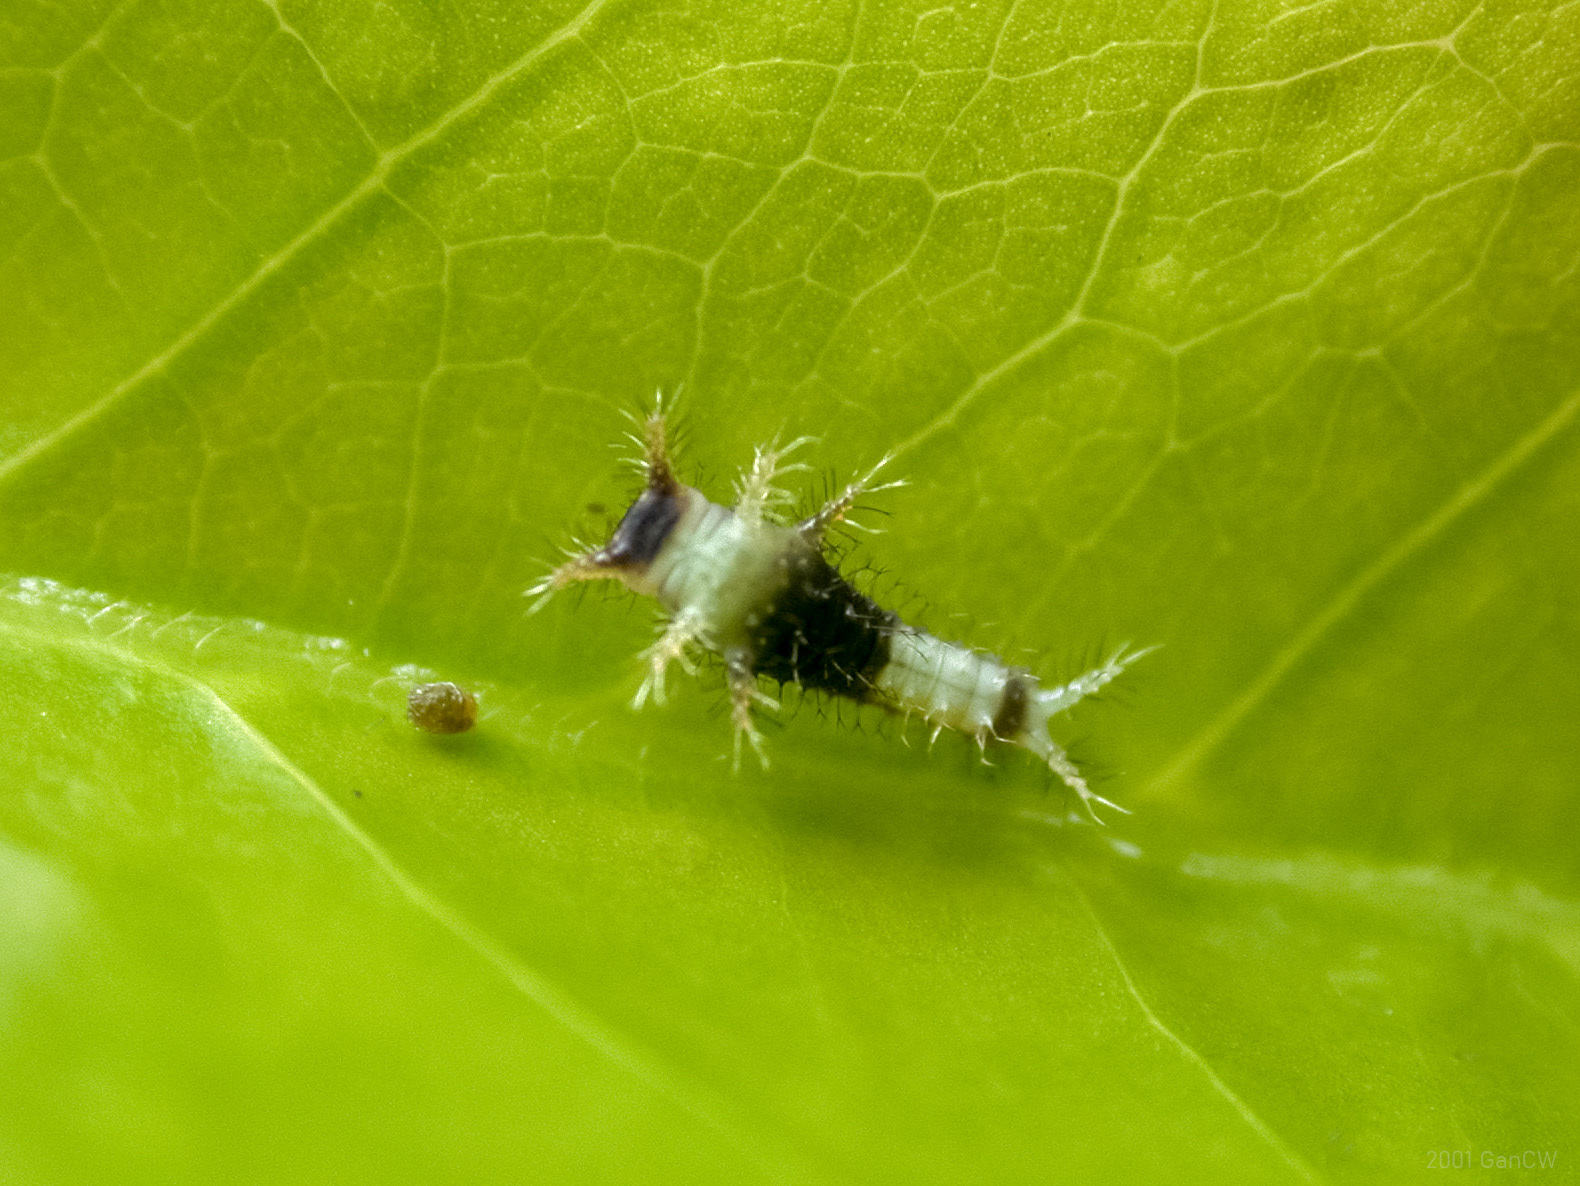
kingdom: Animalia
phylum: Arthropoda
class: Insecta
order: Lepidoptera
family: Papilionidae
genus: Graphium
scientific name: Graphium agamemnon
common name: Tailed jay
